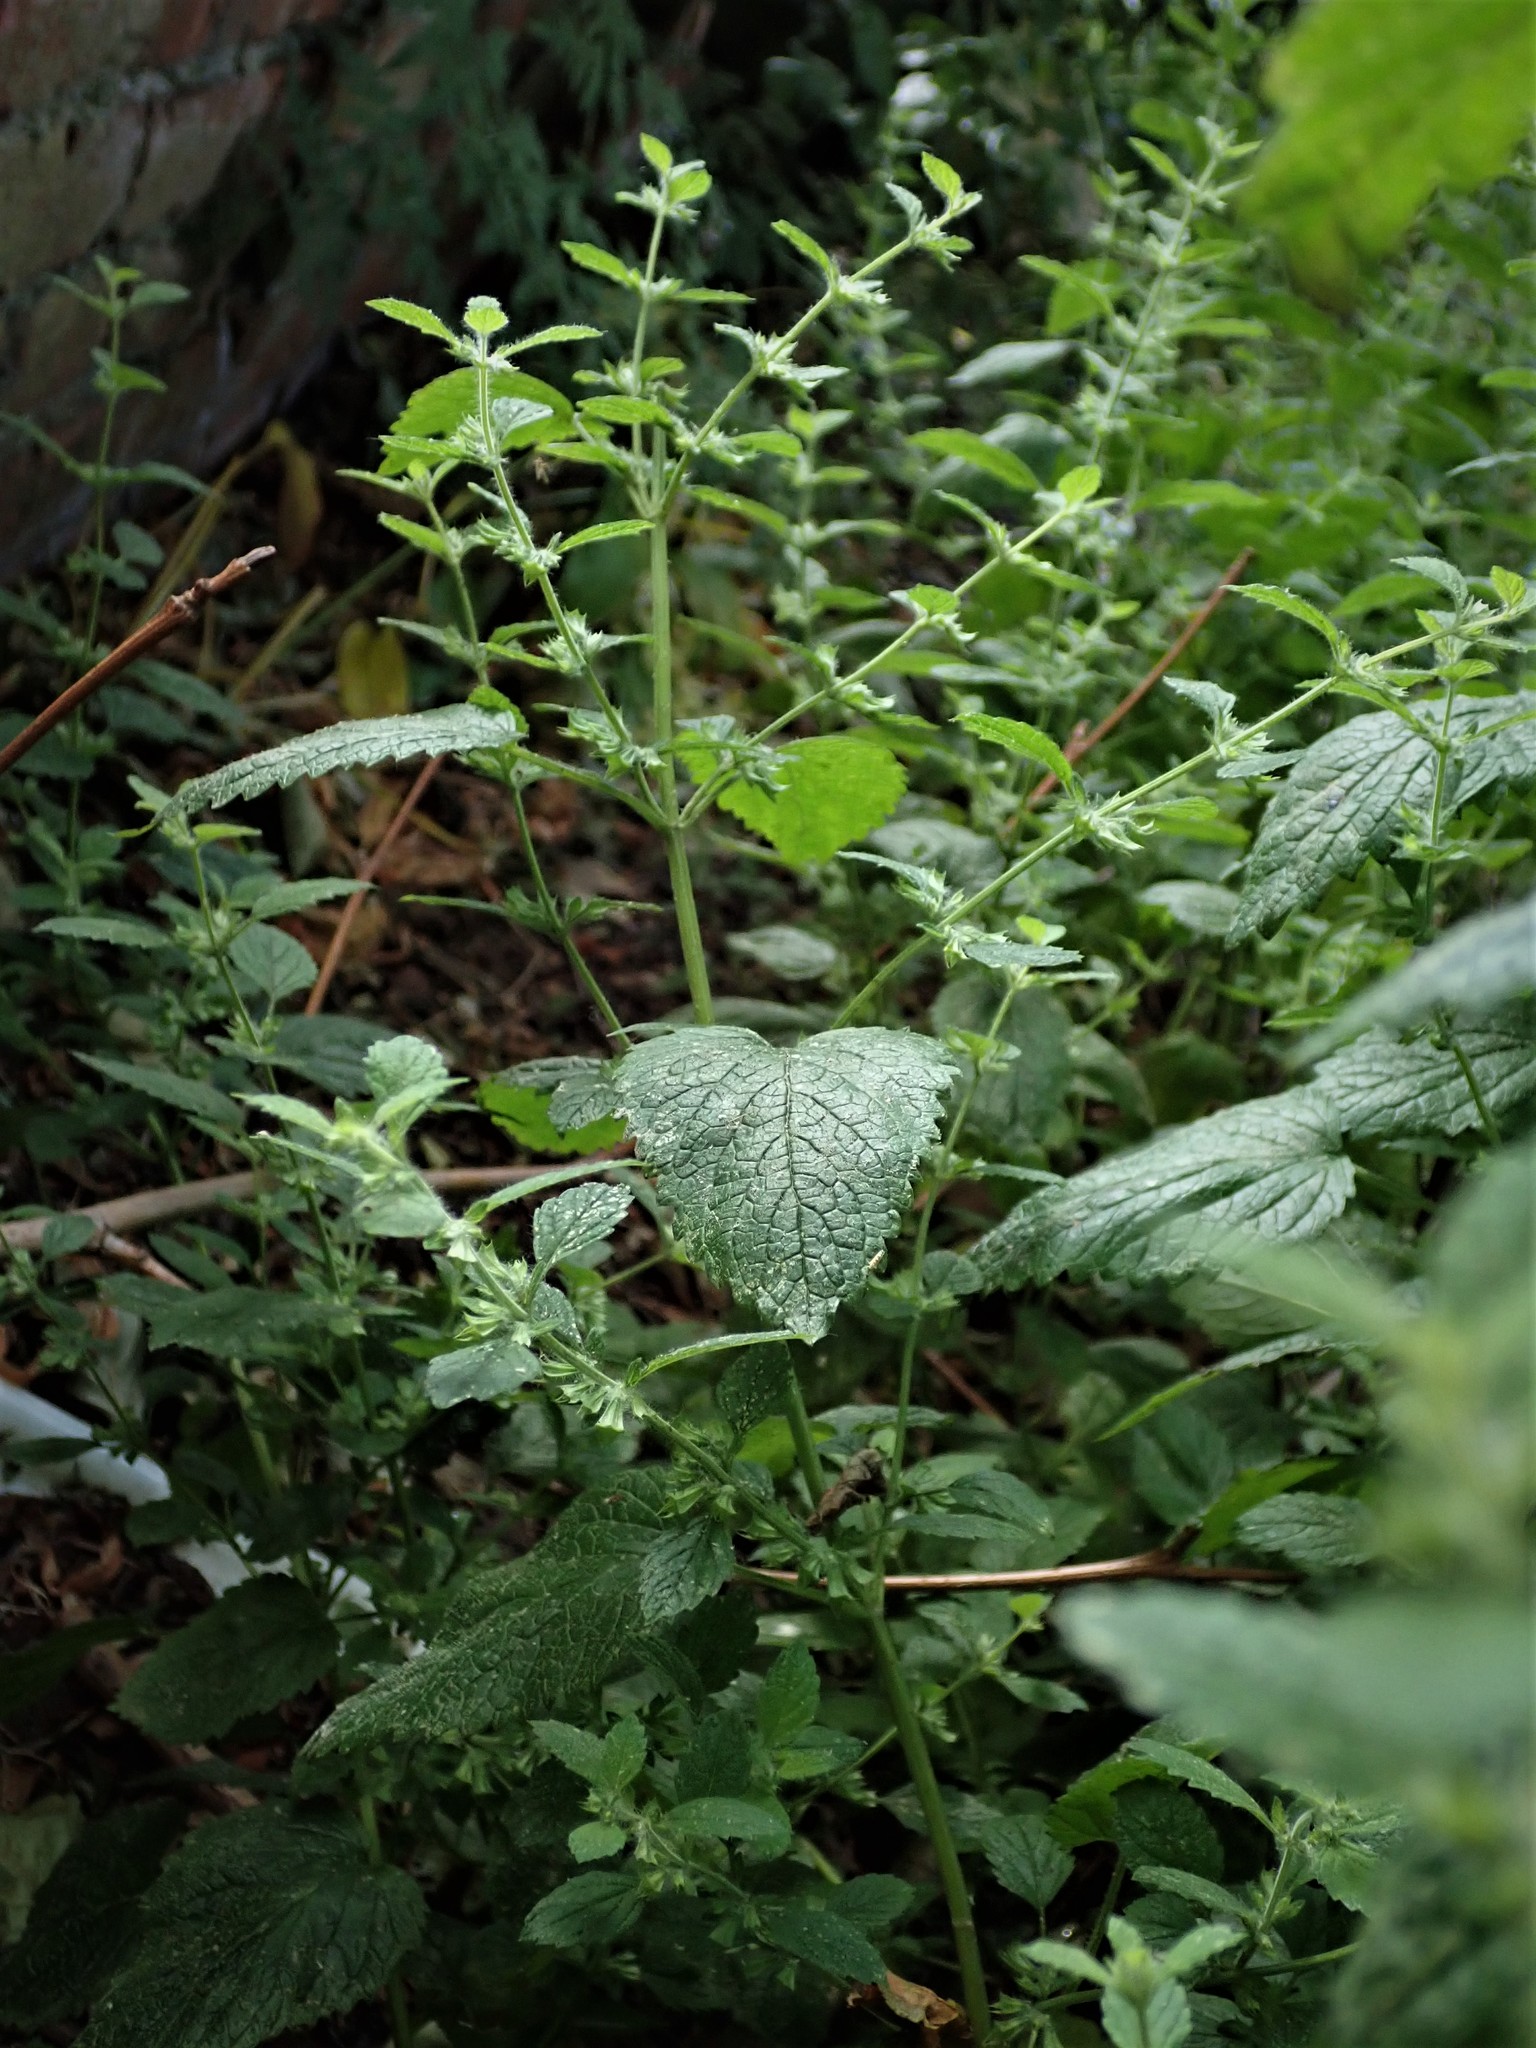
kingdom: Plantae
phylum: Tracheophyta
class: Magnoliopsida
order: Lamiales
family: Lamiaceae
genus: Melissa
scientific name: Melissa officinalis
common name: Balm
